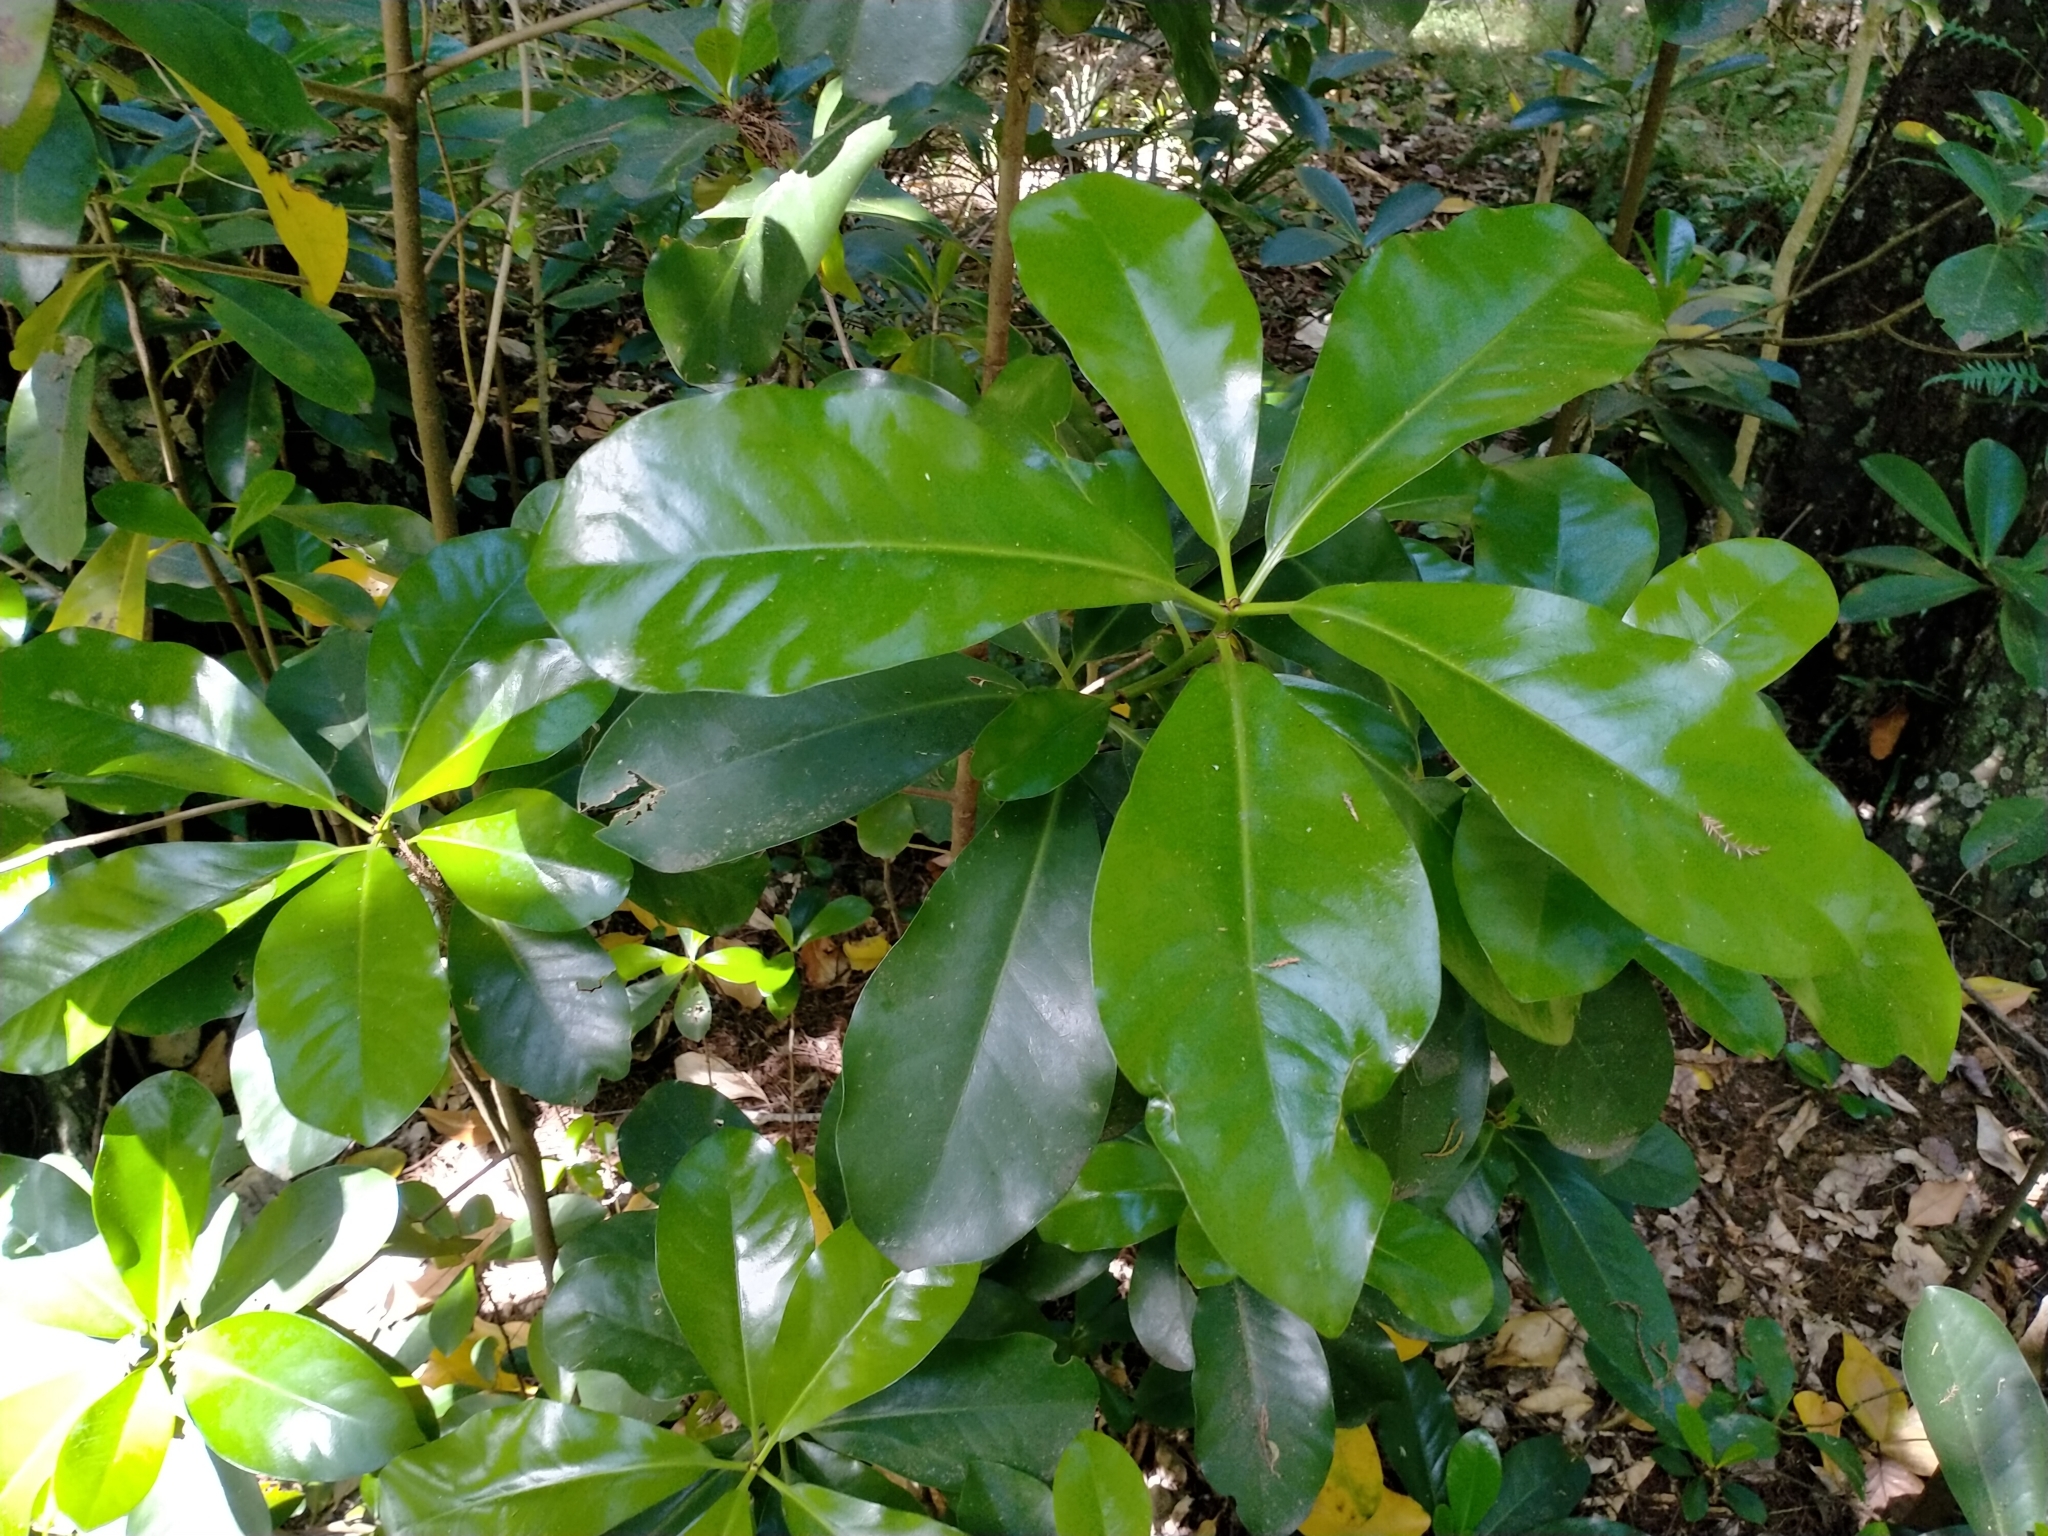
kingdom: Plantae
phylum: Tracheophyta
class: Magnoliopsida
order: Cucurbitales
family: Corynocarpaceae
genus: Corynocarpus
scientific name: Corynocarpus laevigatus
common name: New zealand laurel
